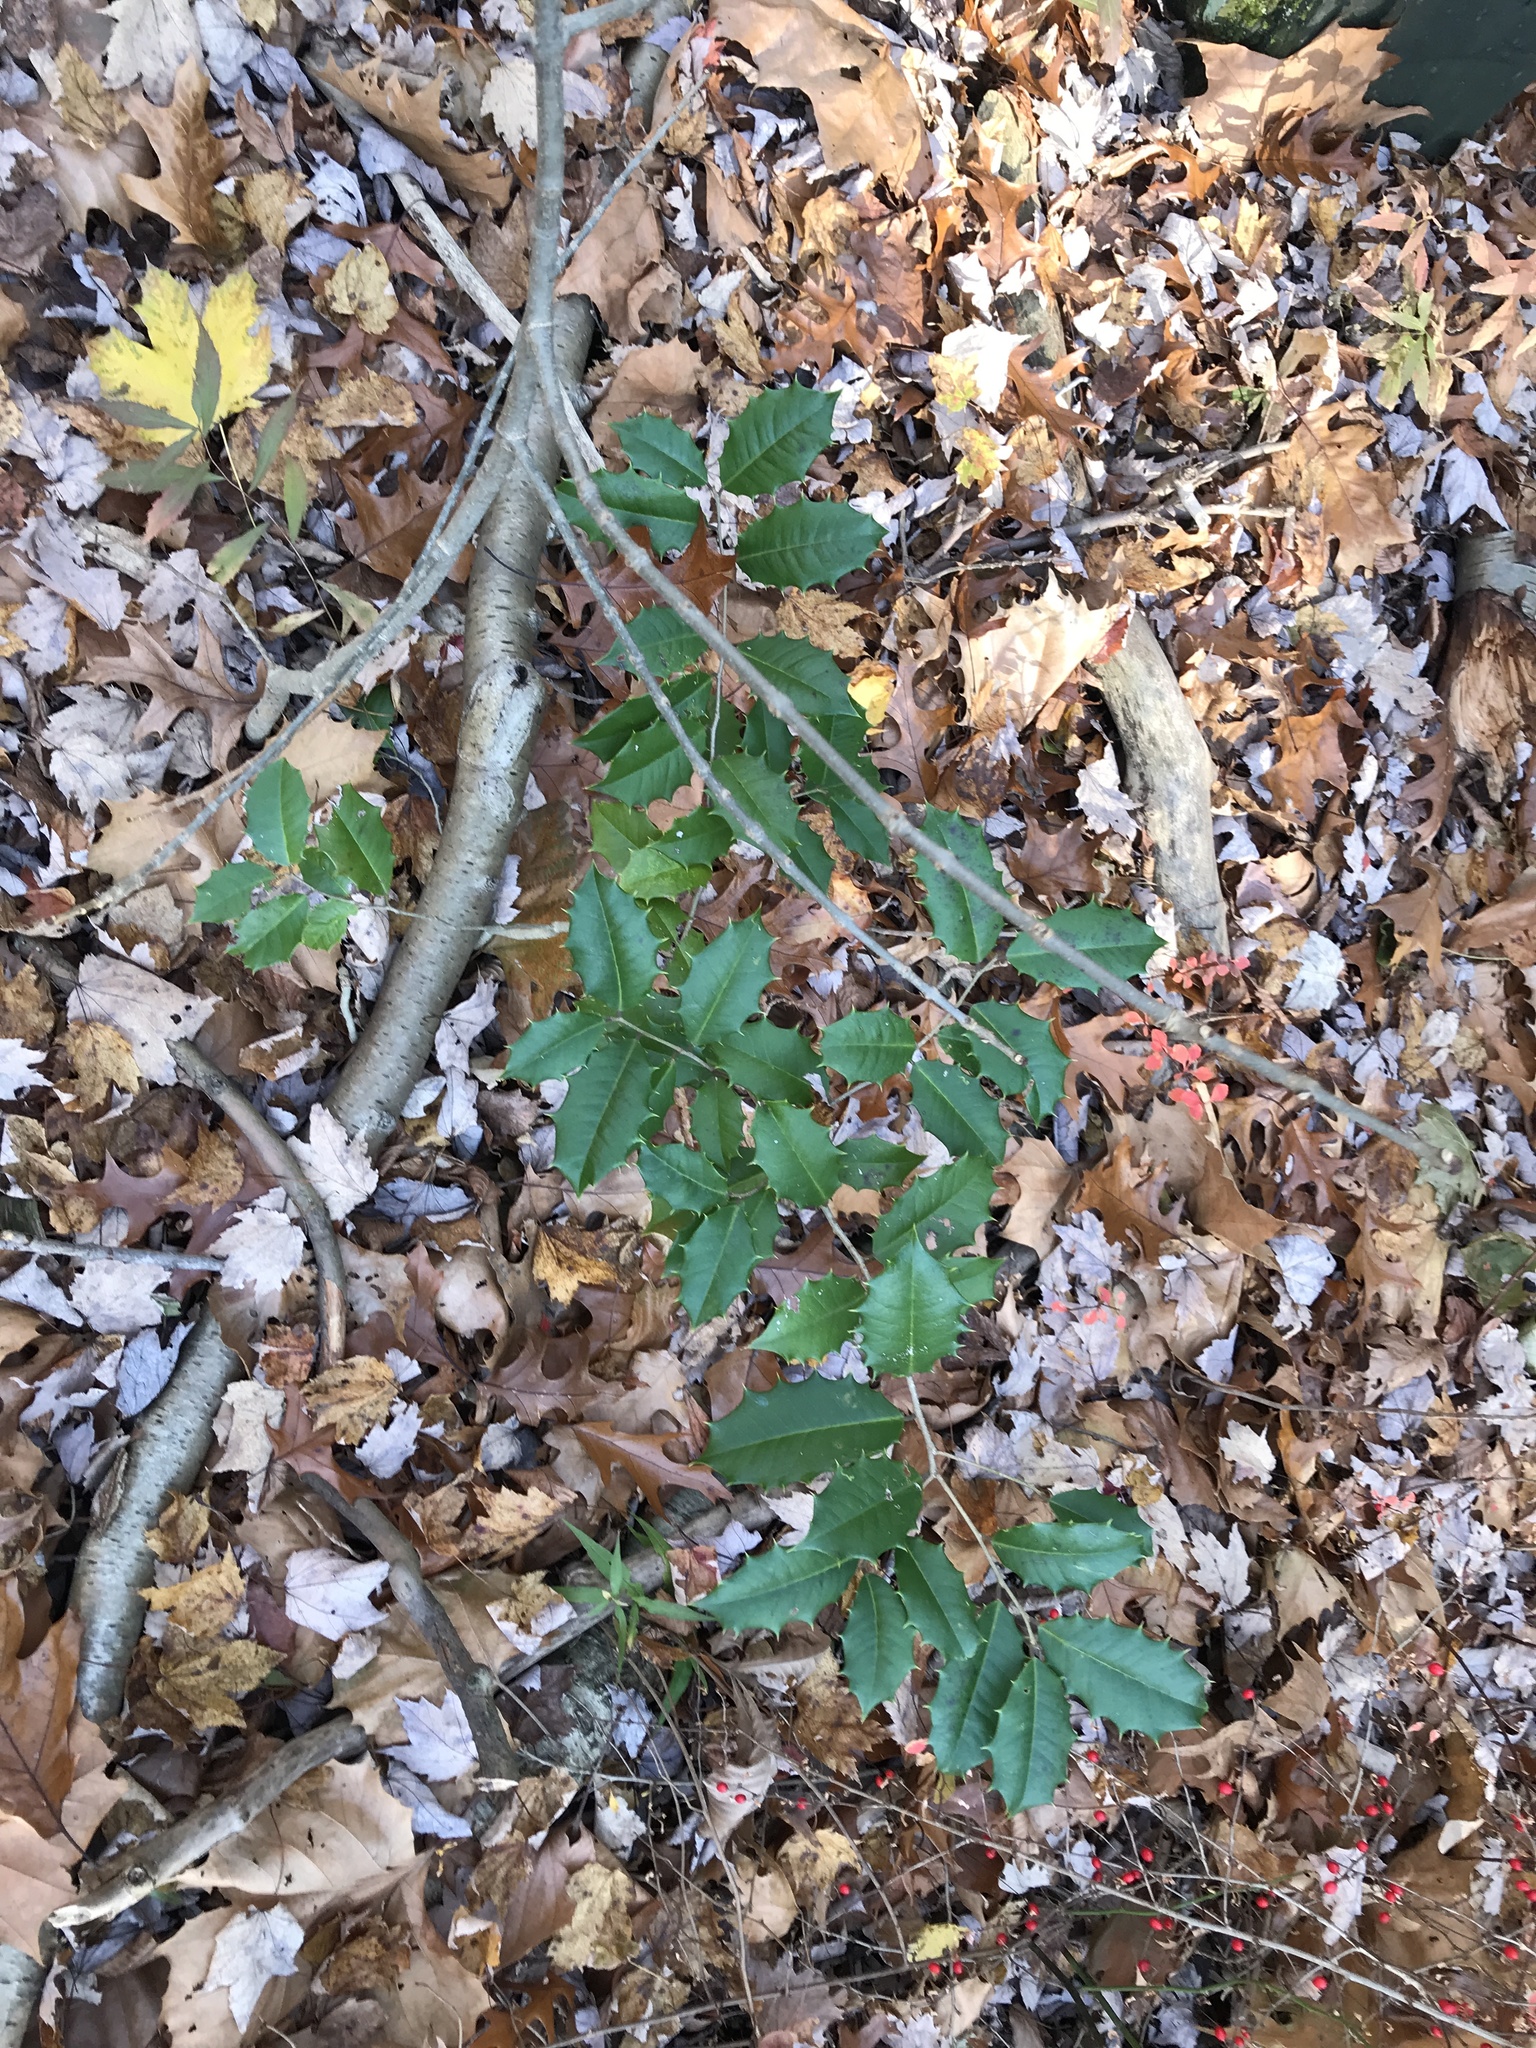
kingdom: Plantae
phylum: Tracheophyta
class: Magnoliopsida
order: Aquifoliales
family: Aquifoliaceae
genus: Ilex
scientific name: Ilex opaca
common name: American holly
